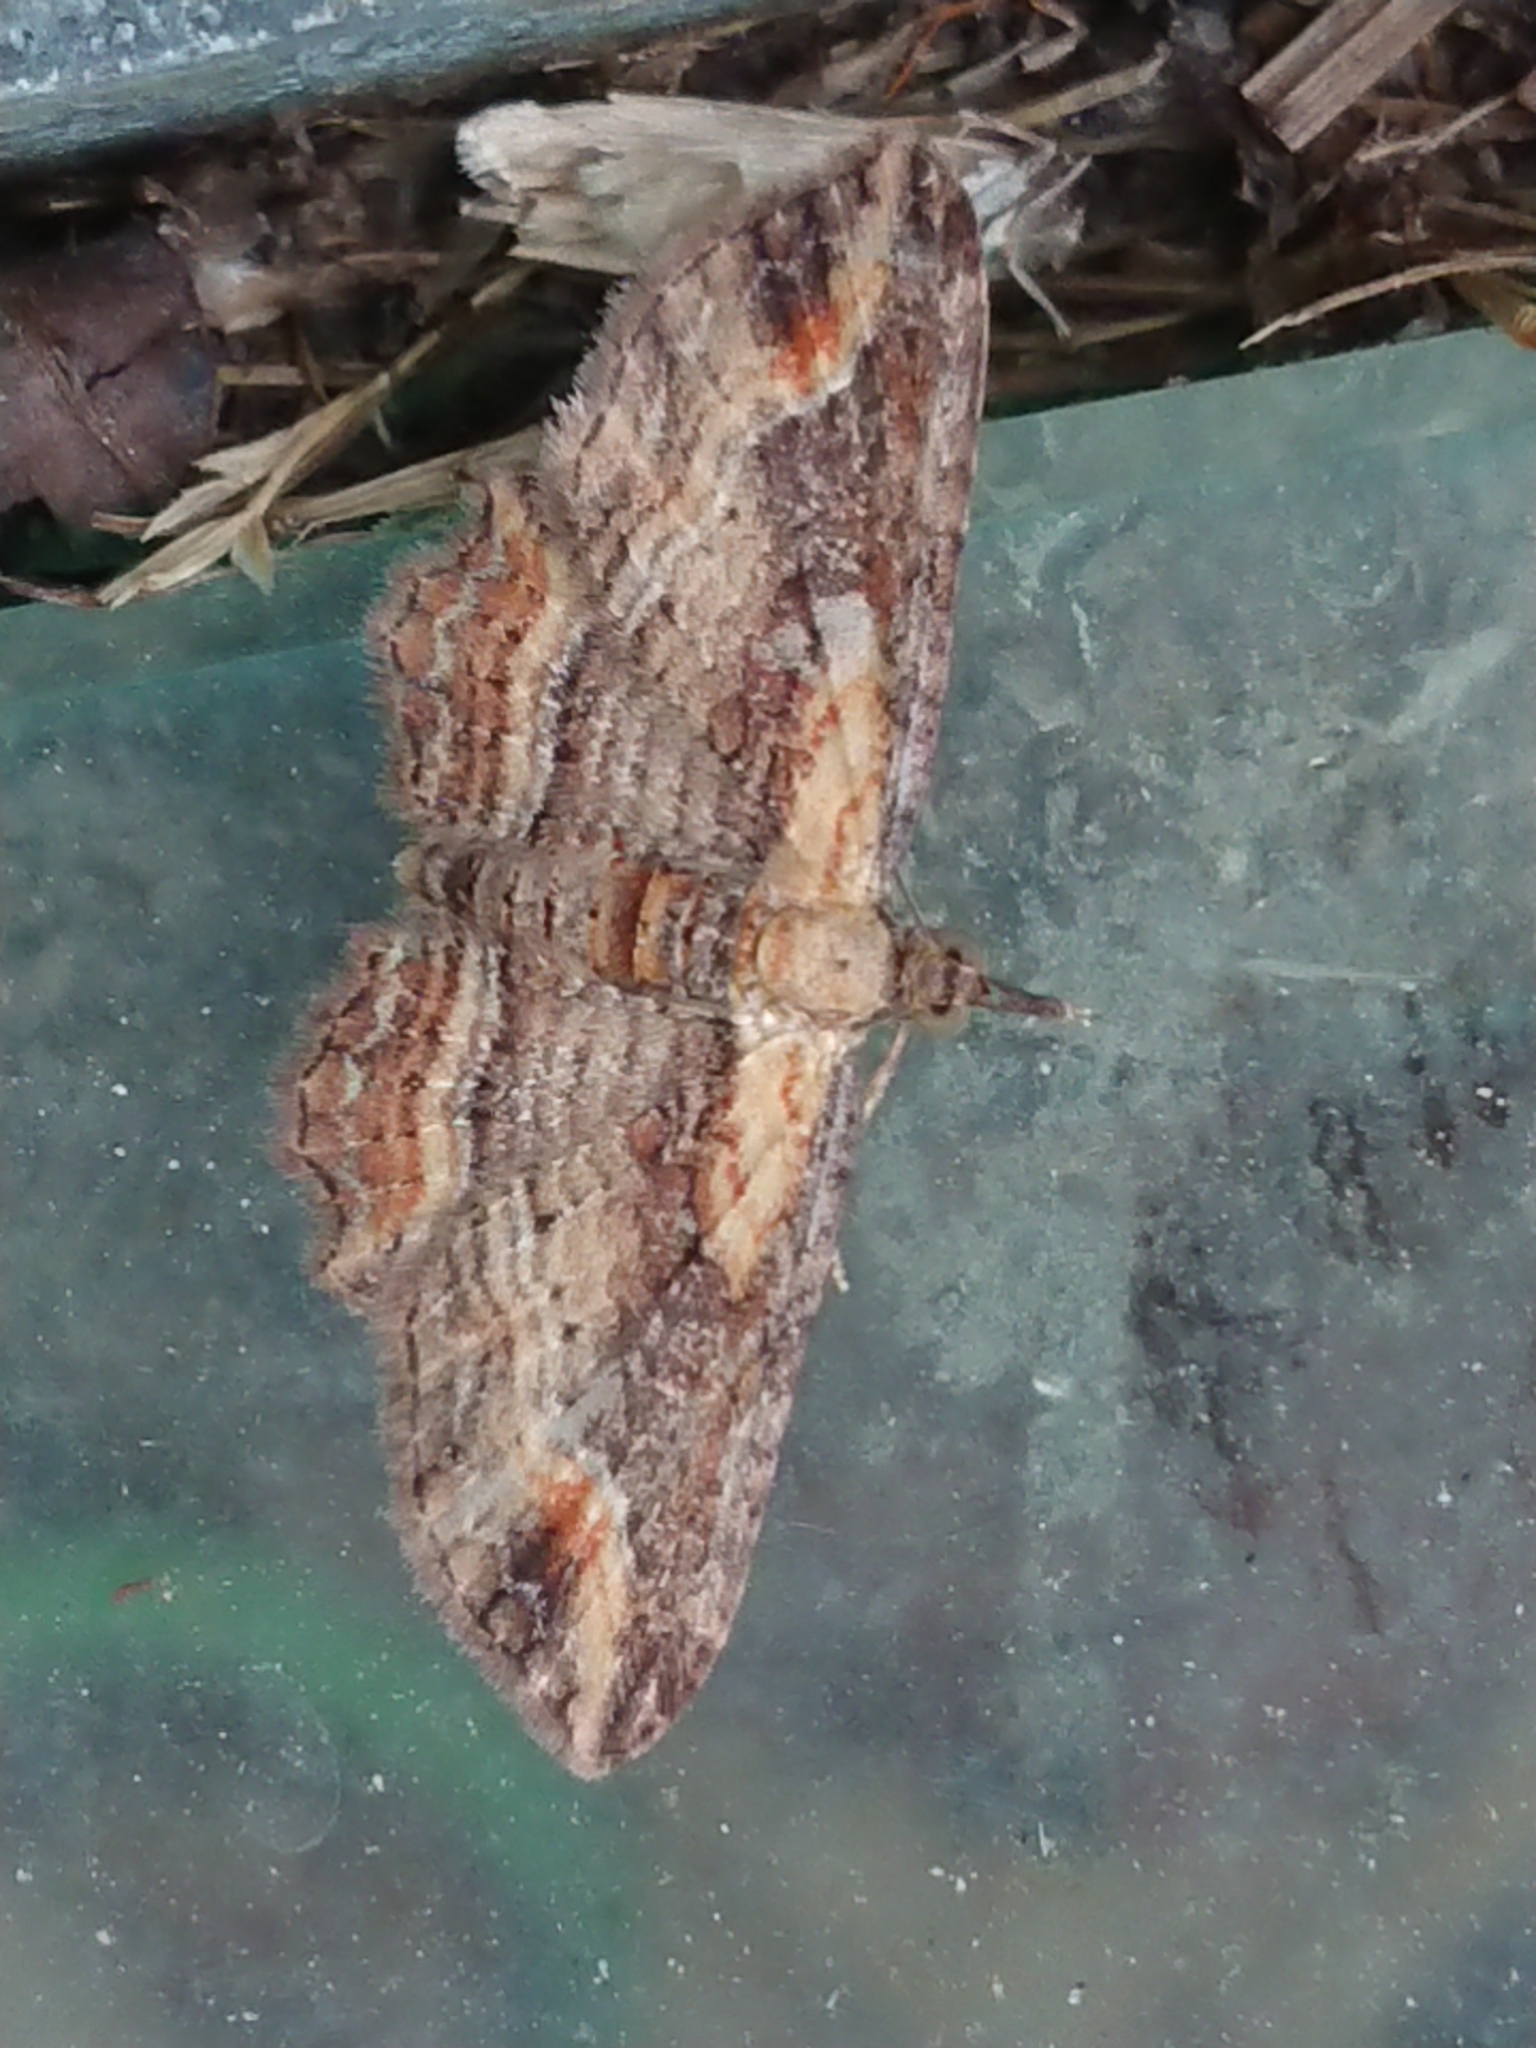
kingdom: Animalia
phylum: Arthropoda
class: Insecta
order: Lepidoptera
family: Geometridae
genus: Chloroclystis
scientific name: Chloroclystis filata
